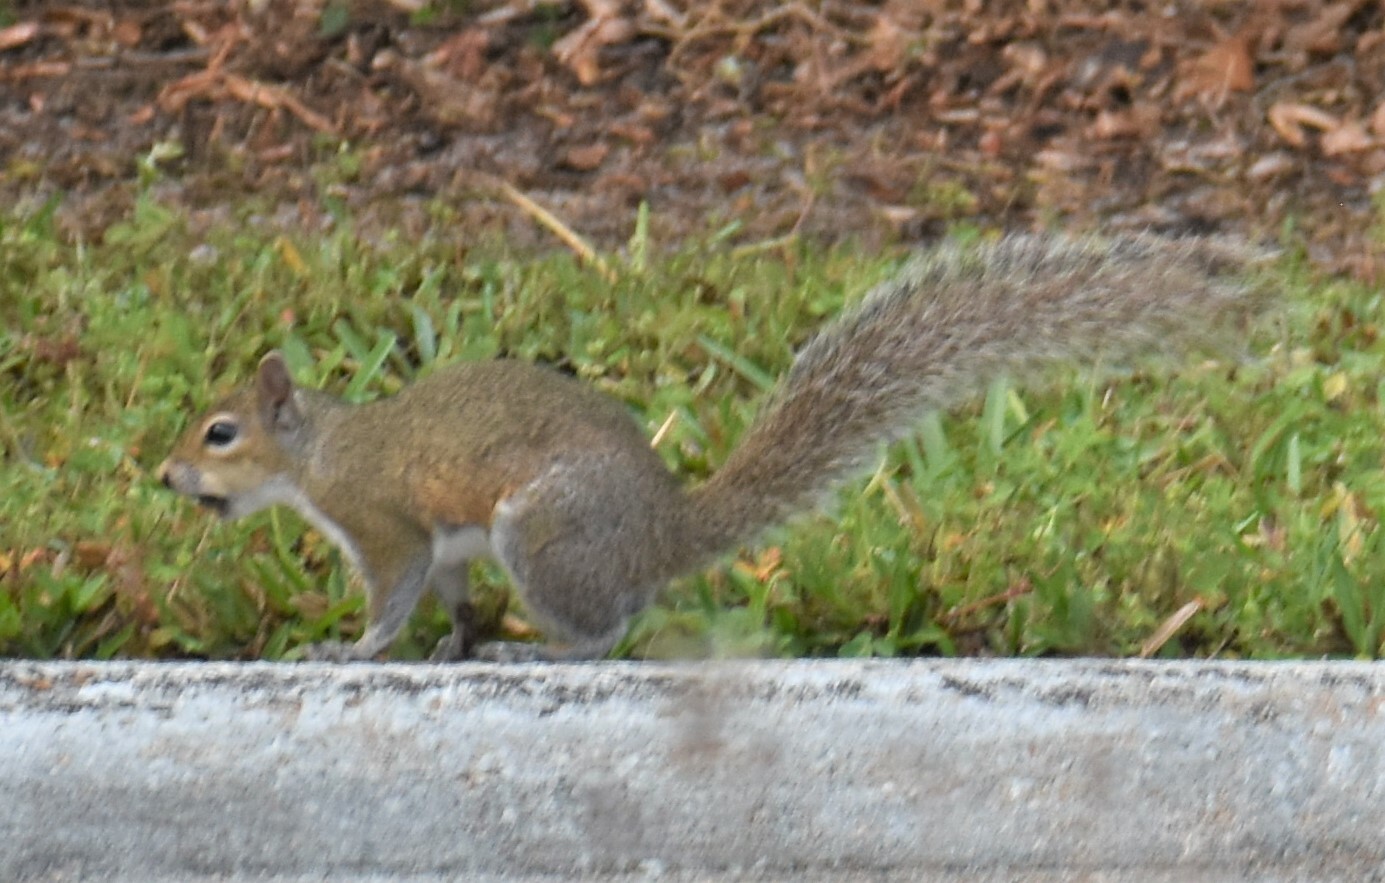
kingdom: Animalia
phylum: Chordata
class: Mammalia
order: Rodentia
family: Sciuridae
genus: Sciurus
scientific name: Sciurus carolinensis
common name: Eastern gray squirrel
